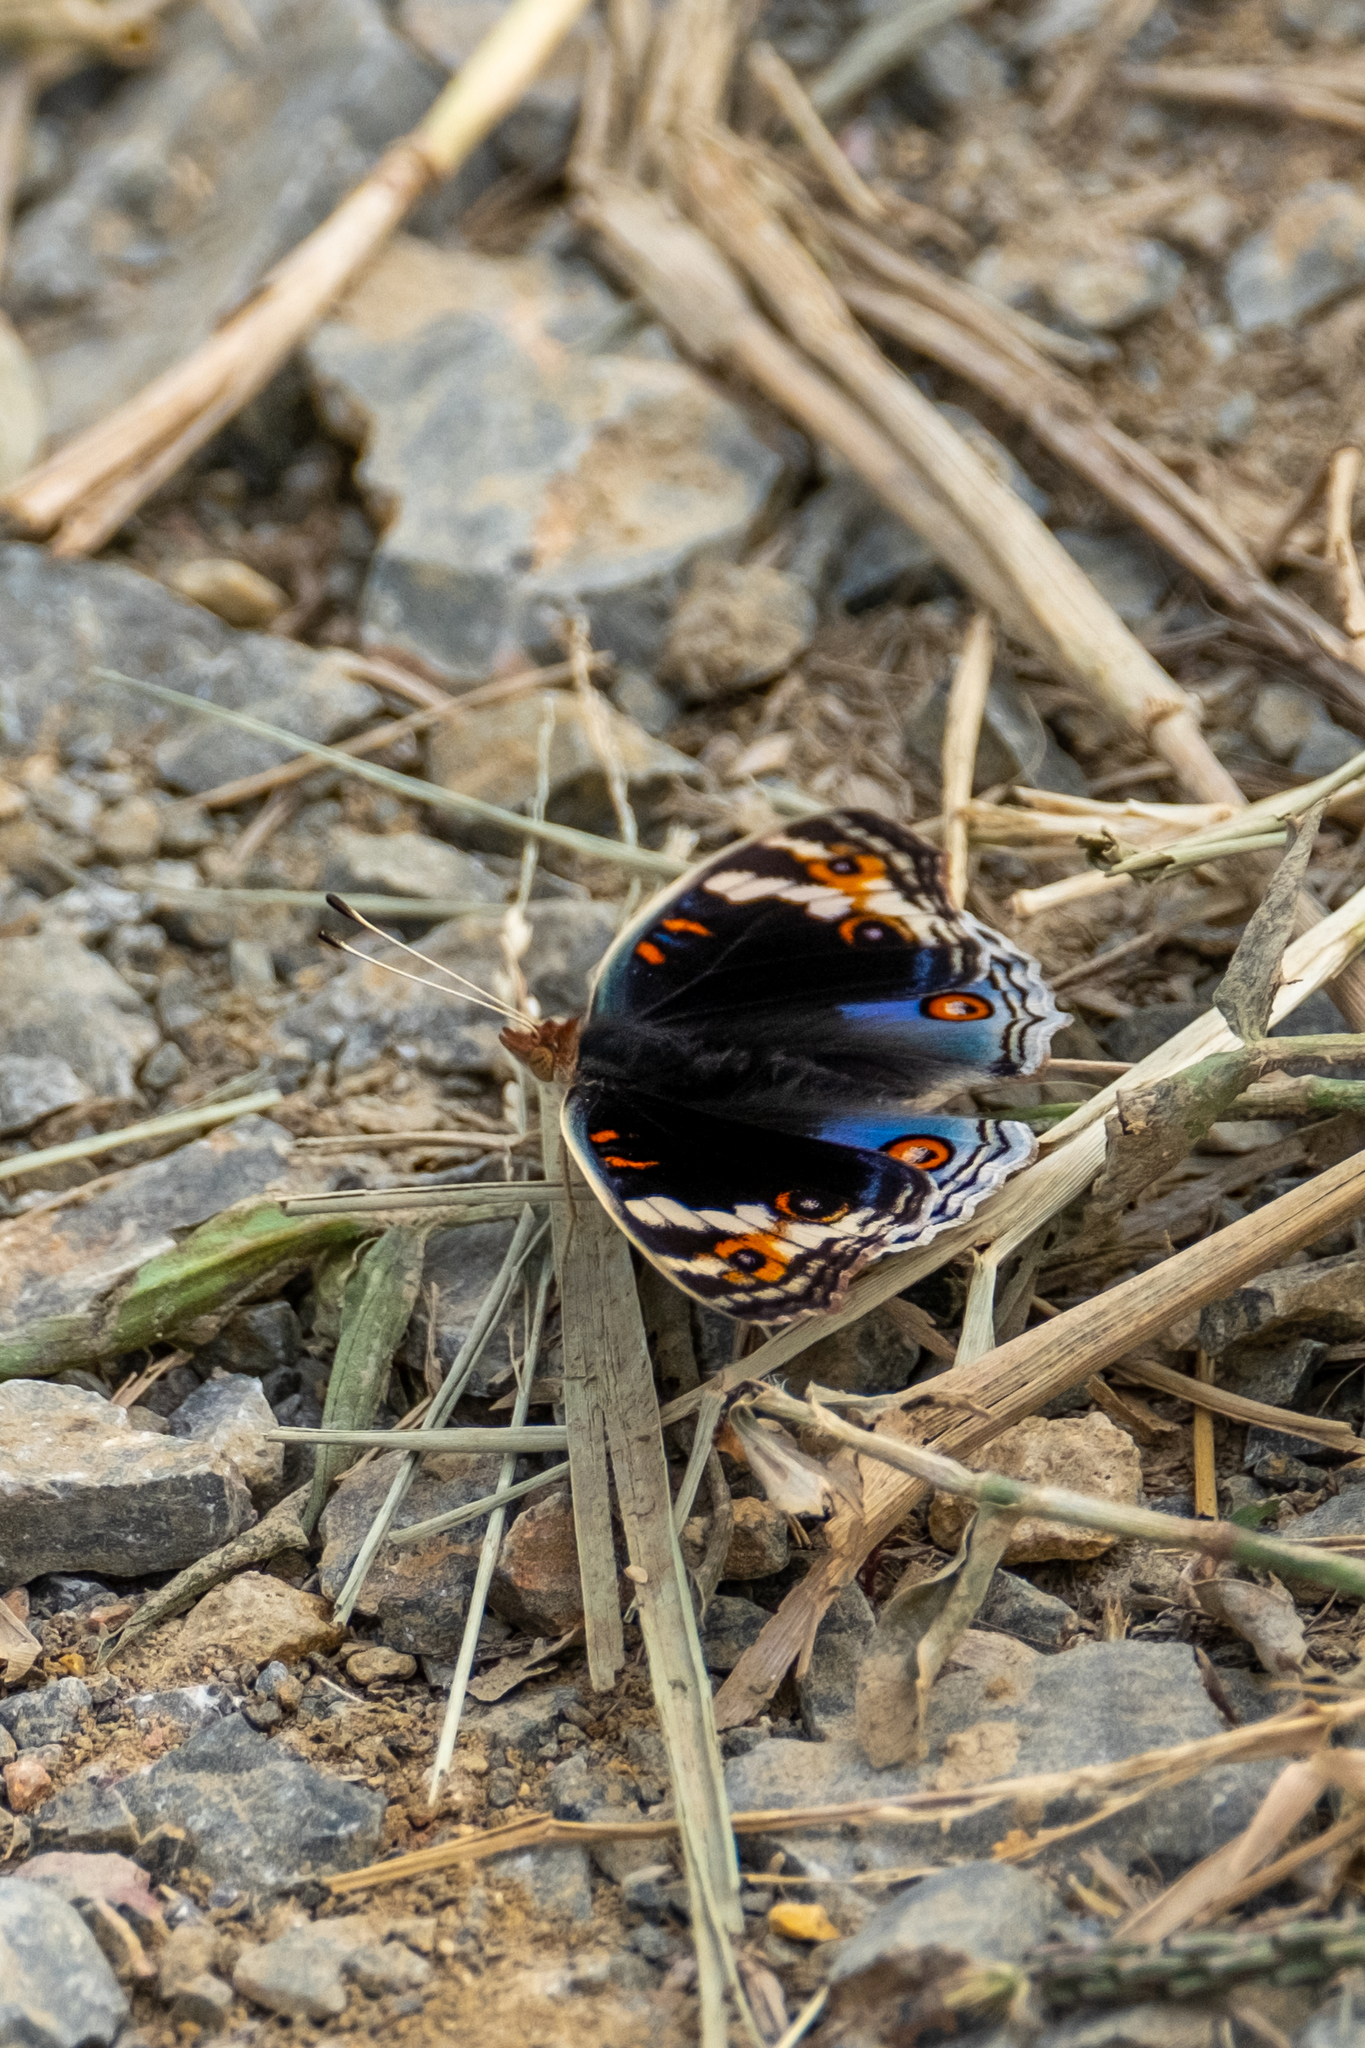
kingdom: Animalia
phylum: Arthropoda
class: Insecta
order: Lepidoptera
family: Nymphalidae
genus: Junonia
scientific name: Junonia orithya
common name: Blue pansy
